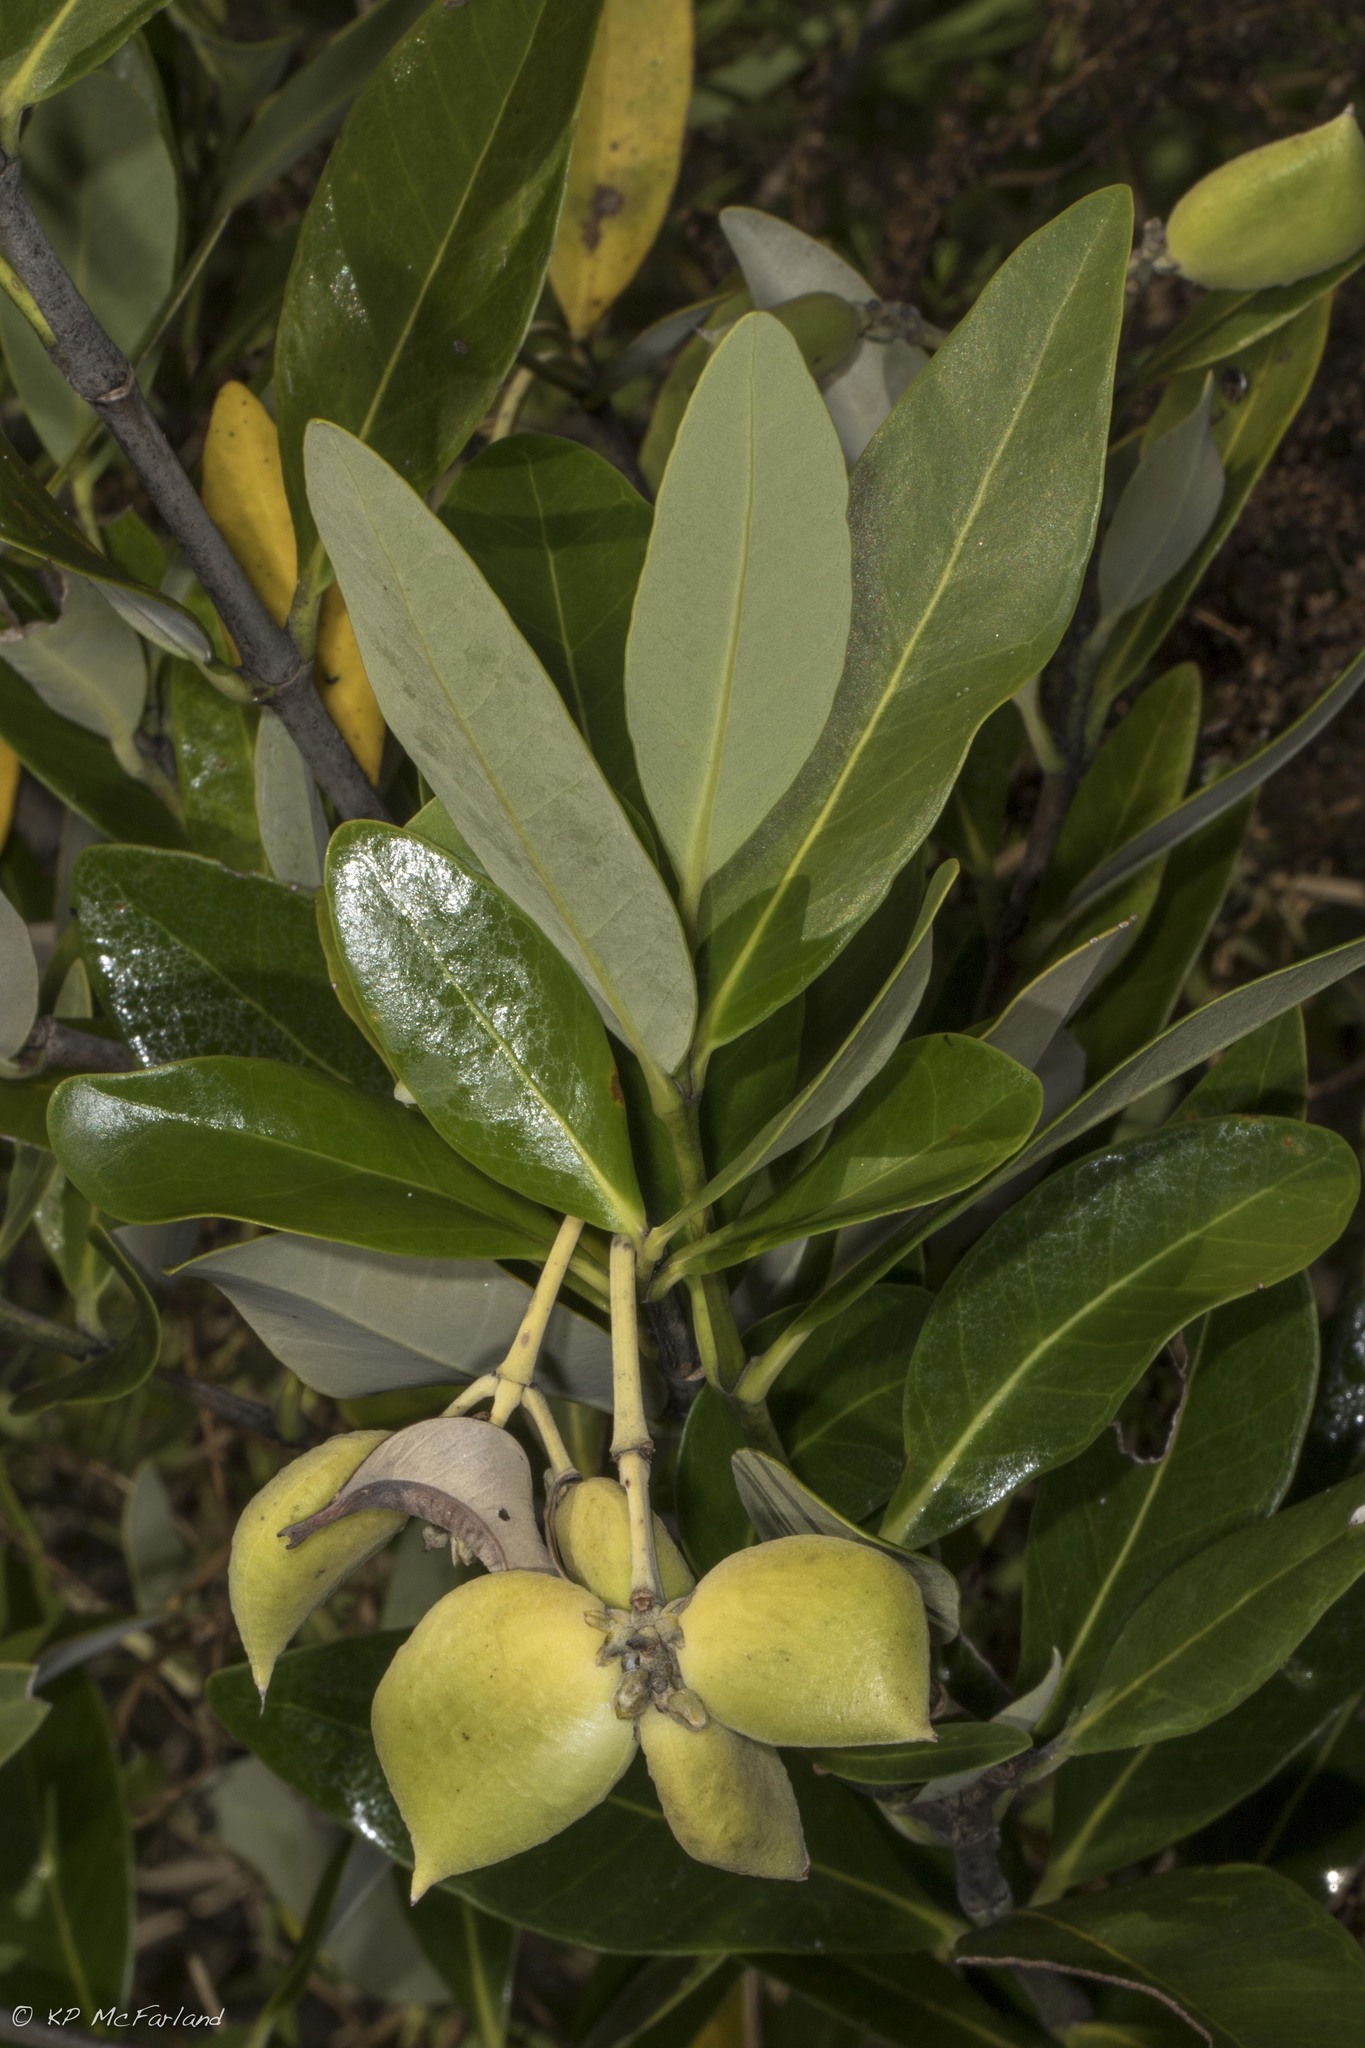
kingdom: Plantae
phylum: Tracheophyta
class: Magnoliopsida
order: Lamiales
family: Acanthaceae
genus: Avicennia
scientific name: Avicennia germinans
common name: Black mangrove
